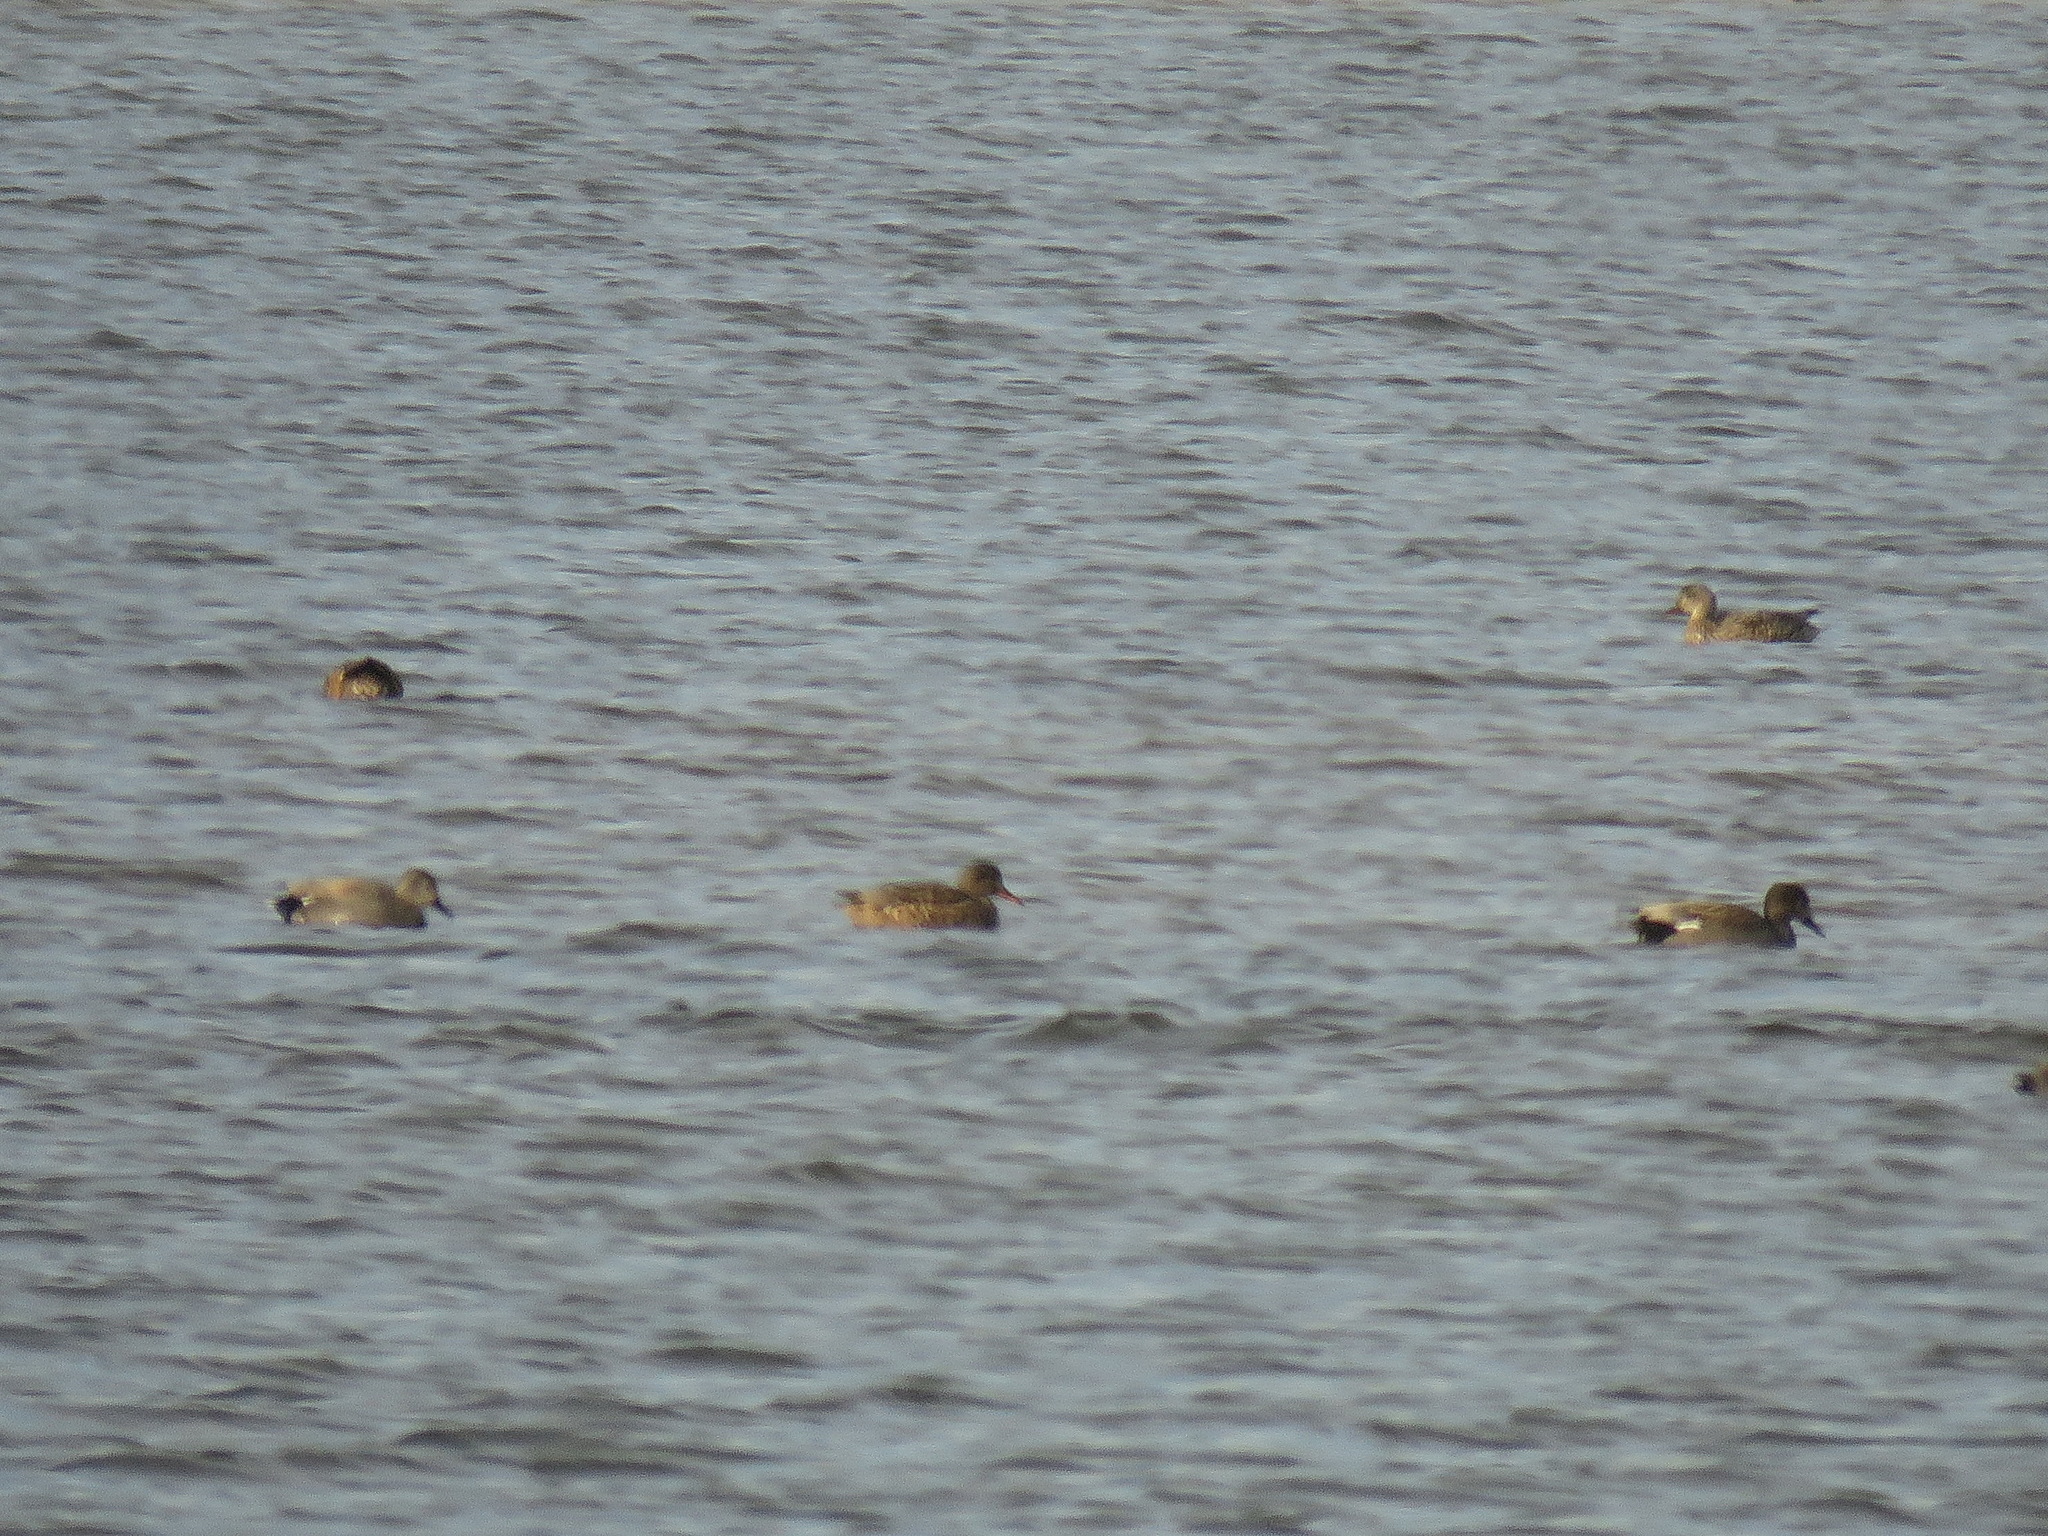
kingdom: Animalia
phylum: Chordata
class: Aves
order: Anseriformes
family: Anatidae
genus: Mareca
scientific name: Mareca strepera
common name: Gadwall
